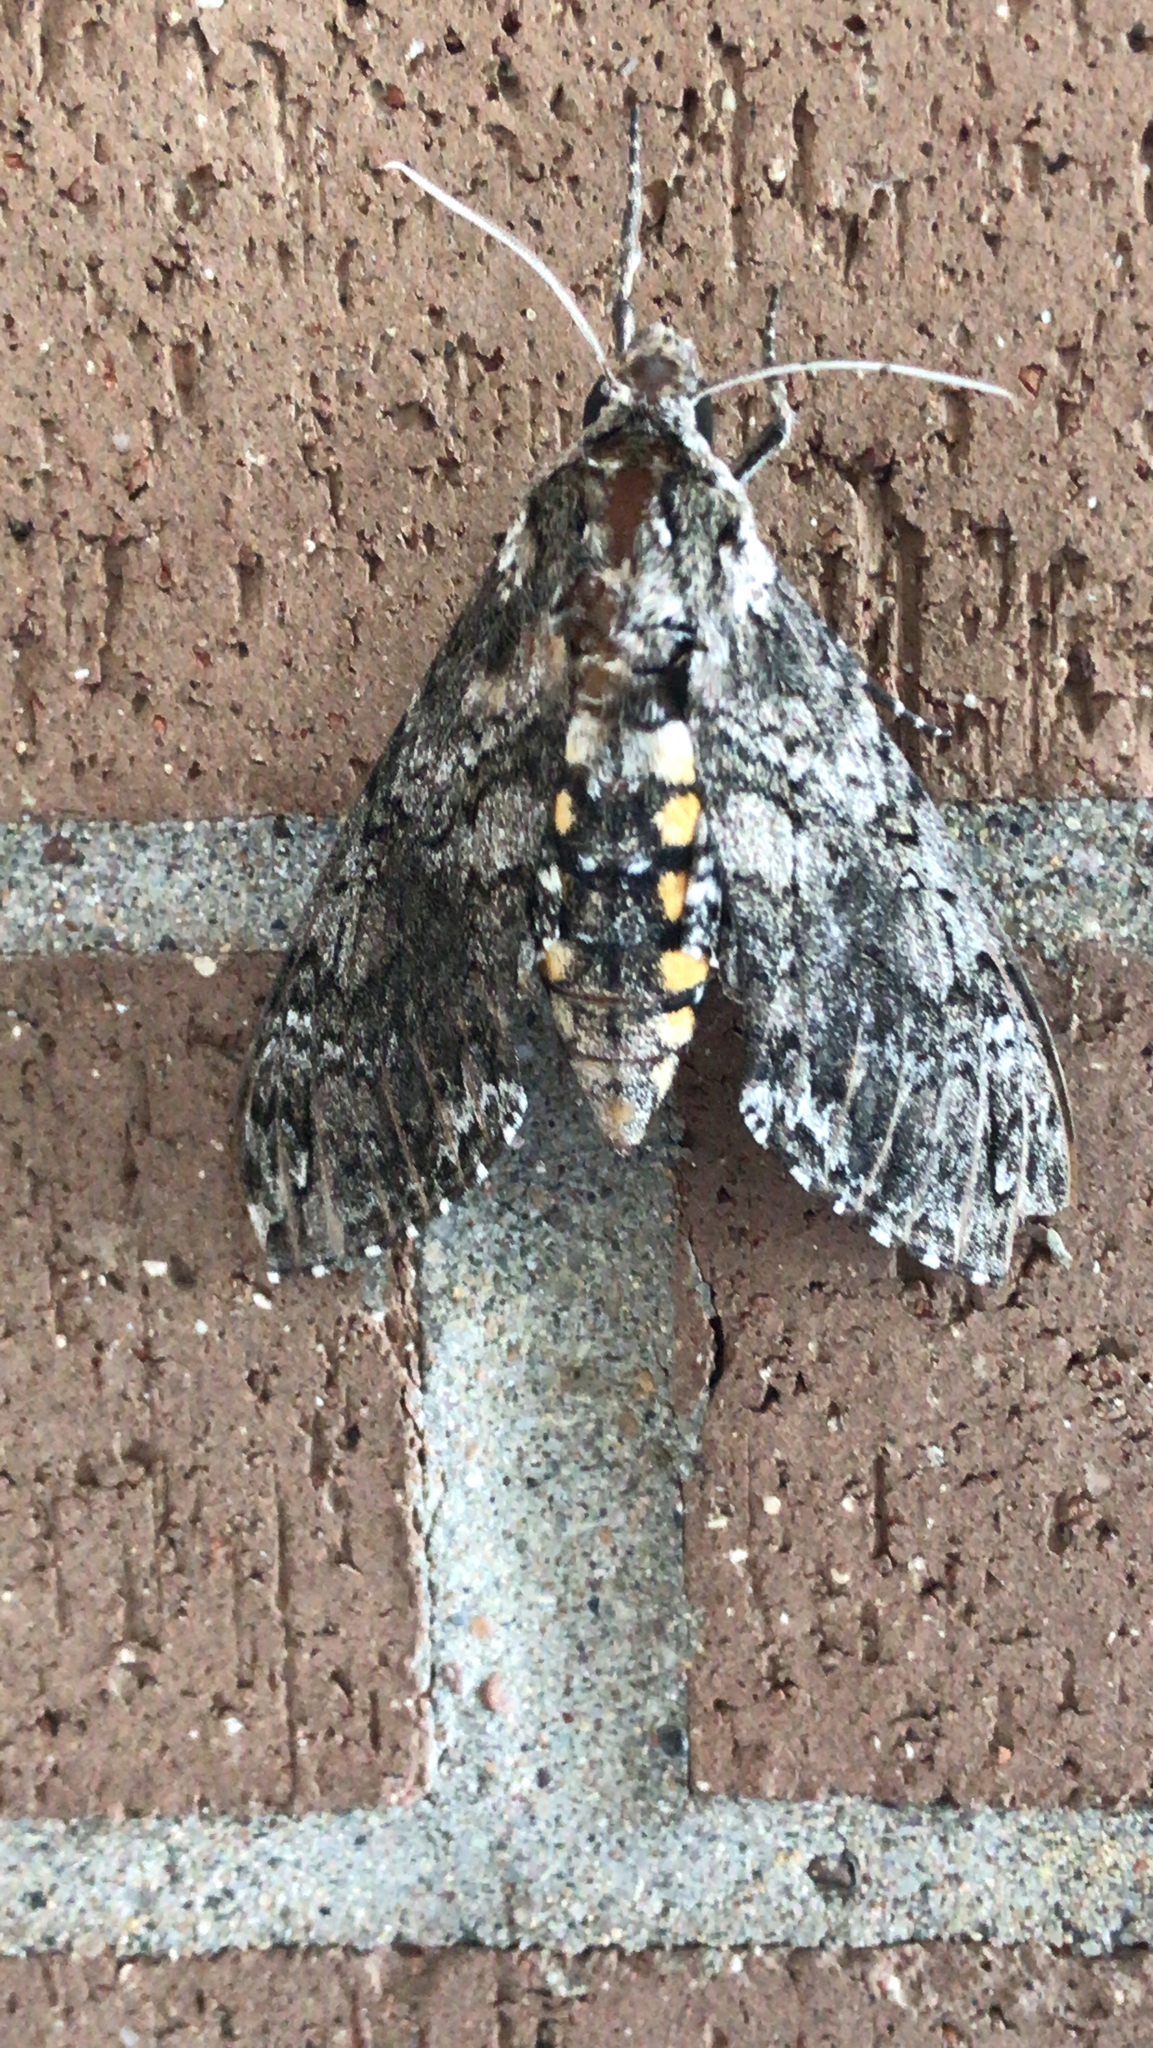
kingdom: Animalia
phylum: Arthropoda
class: Insecta
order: Lepidoptera
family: Sphingidae
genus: Manduca
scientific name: Manduca sexta
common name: Carolina sphinx
